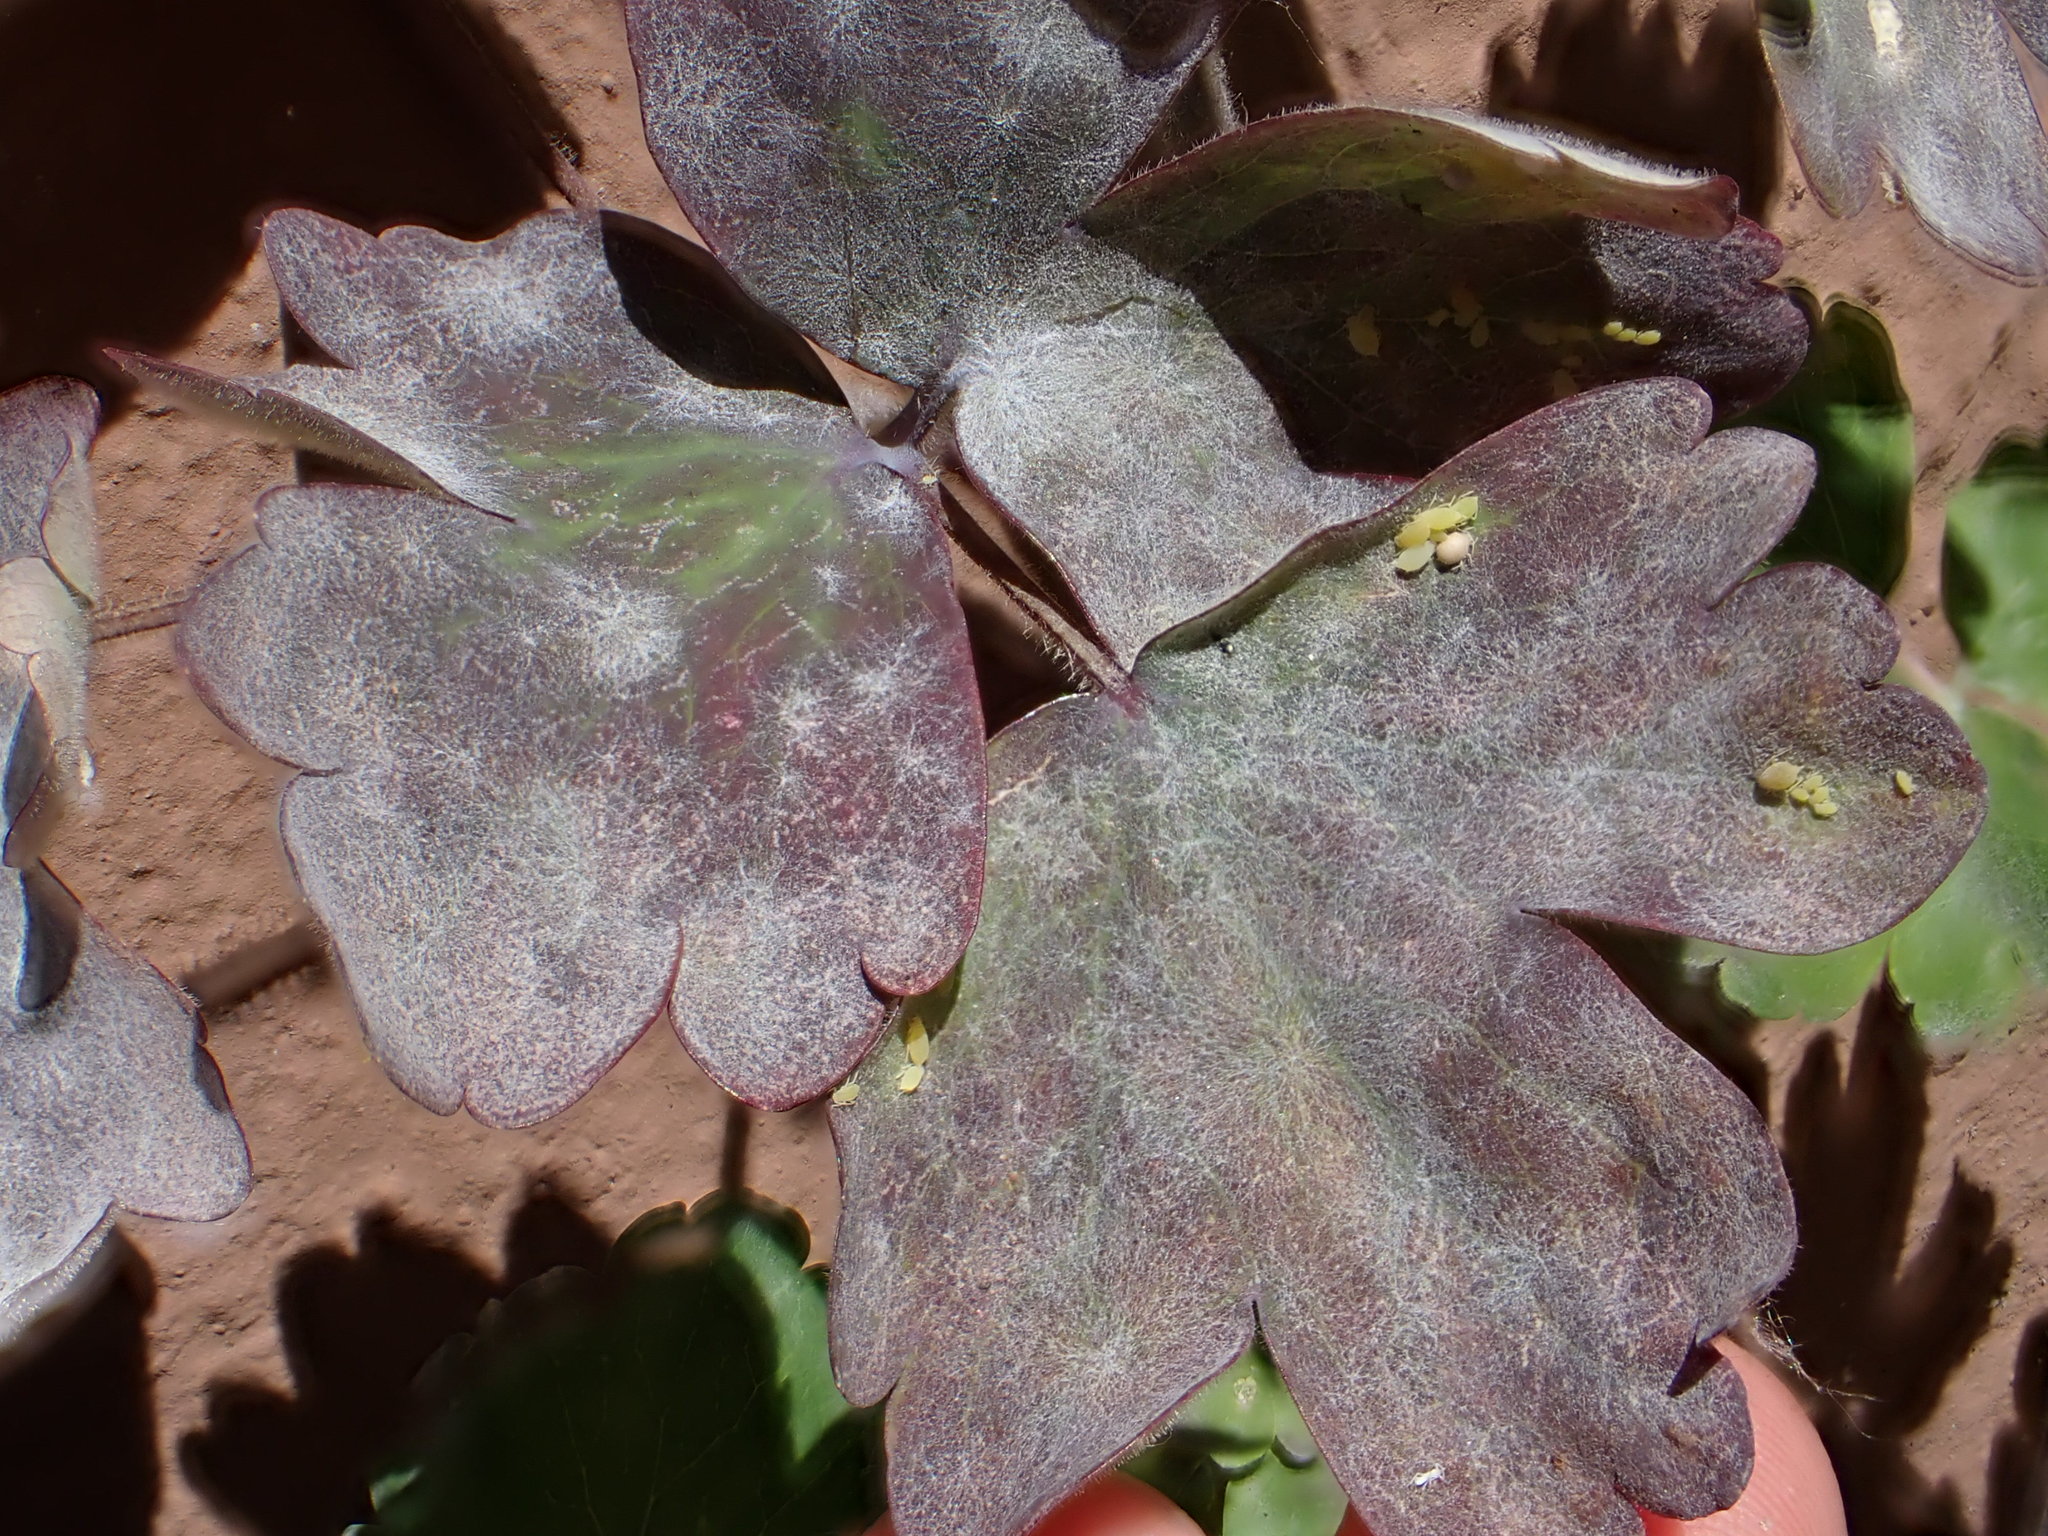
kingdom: Fungi
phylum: Ascomycota
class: Leotiomycetes
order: Helotiales
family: Erysiphaceae
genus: Erysiphe
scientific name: Erysiphe aquilegiae
